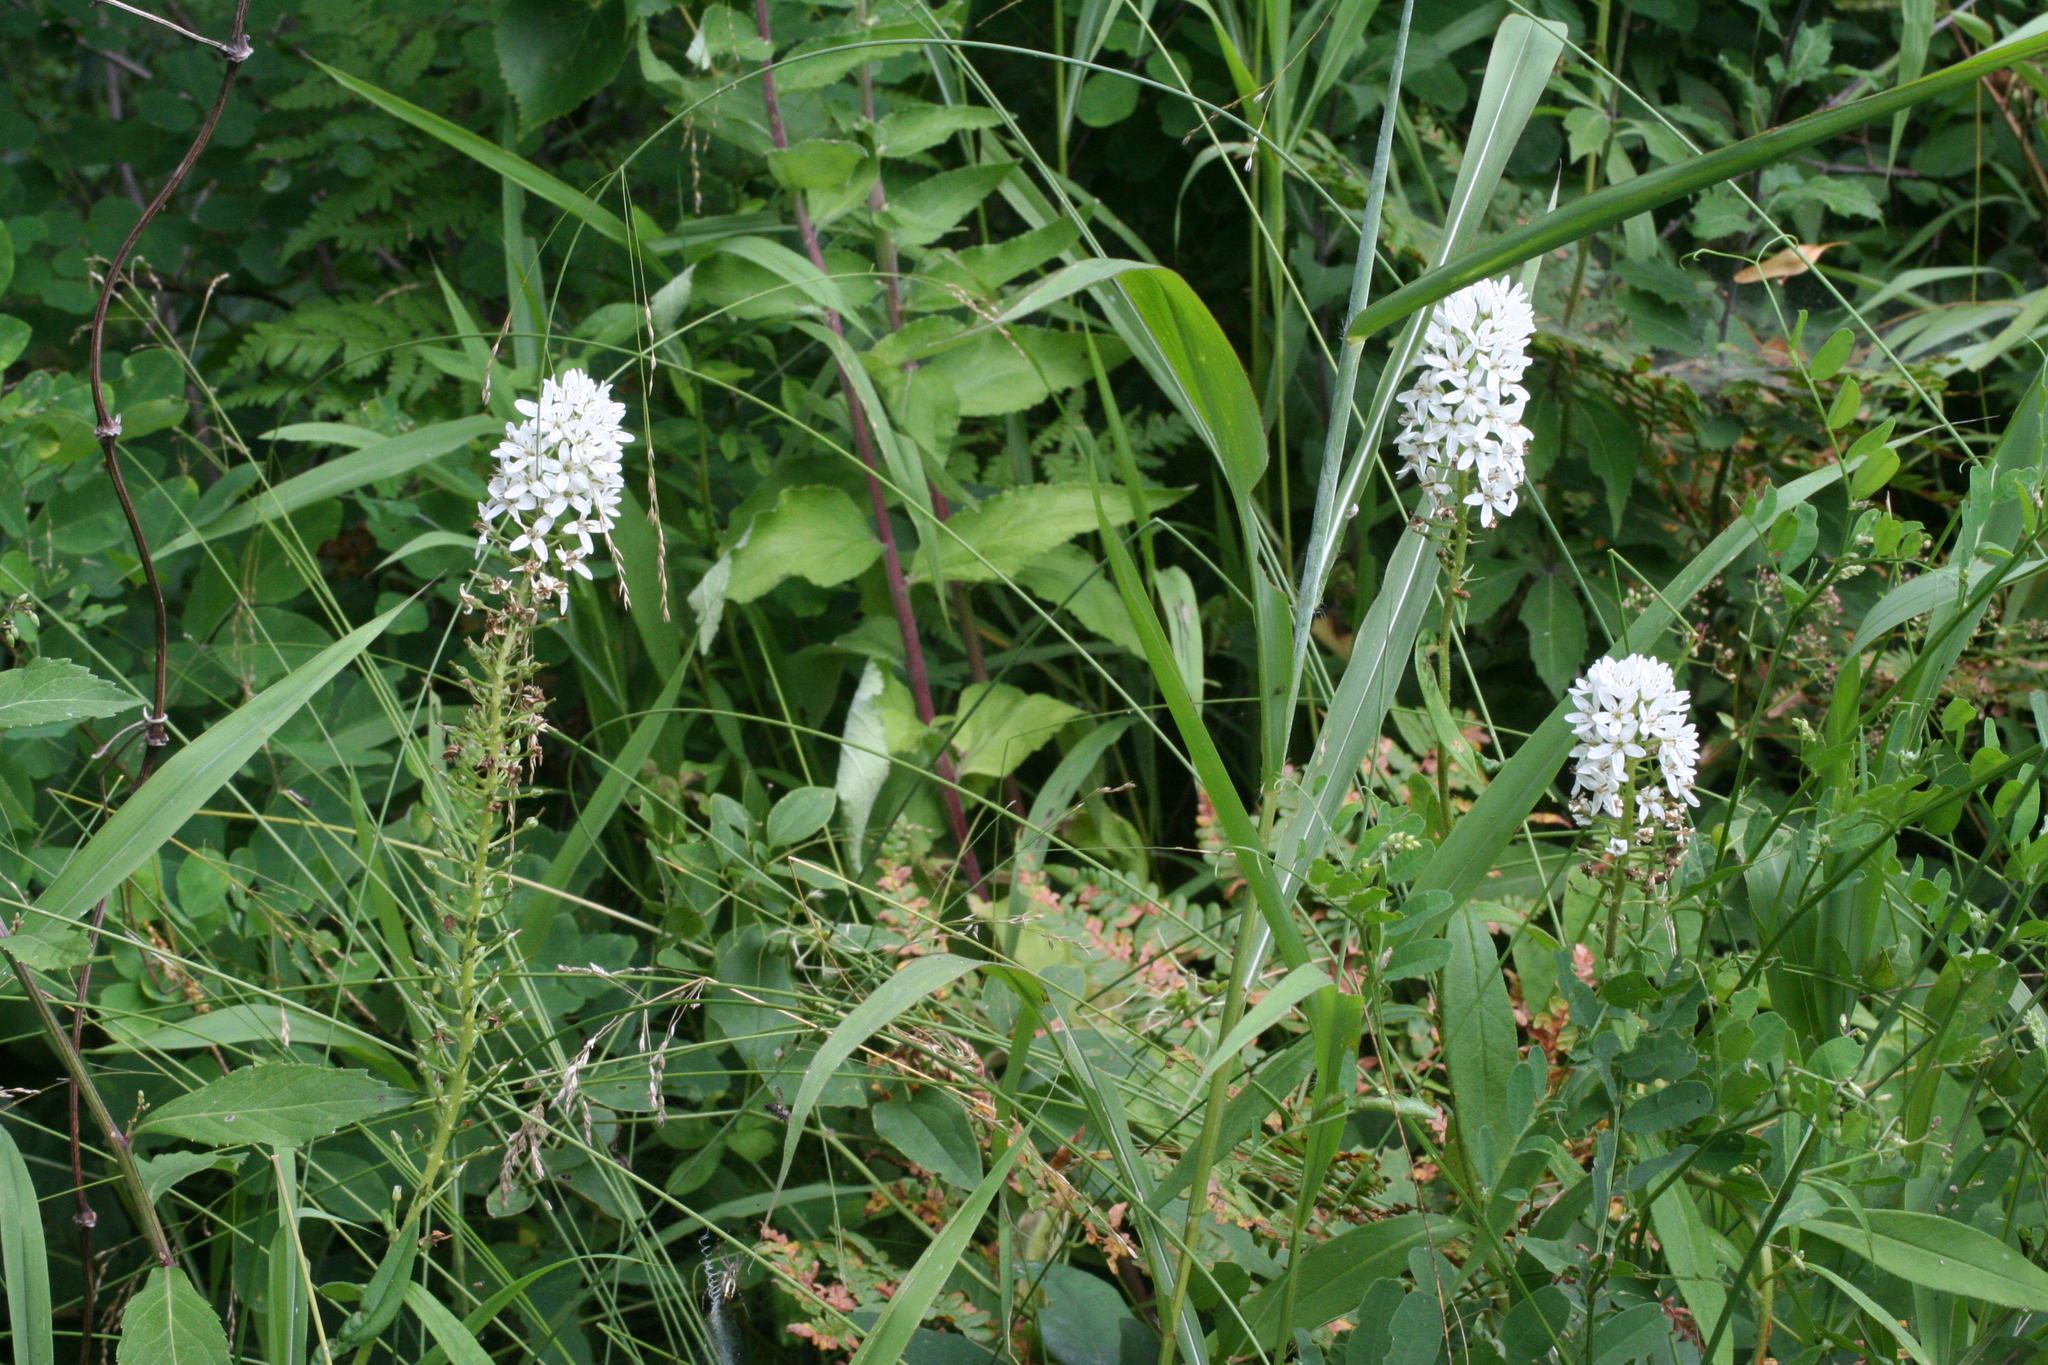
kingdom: Plantae
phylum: Tracheophyta
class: Magnoliopsida
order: Ericales
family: Primulaceae
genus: Lysimachia
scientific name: Lysimachia barystachys
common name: Manchurian yellow loosestrife
